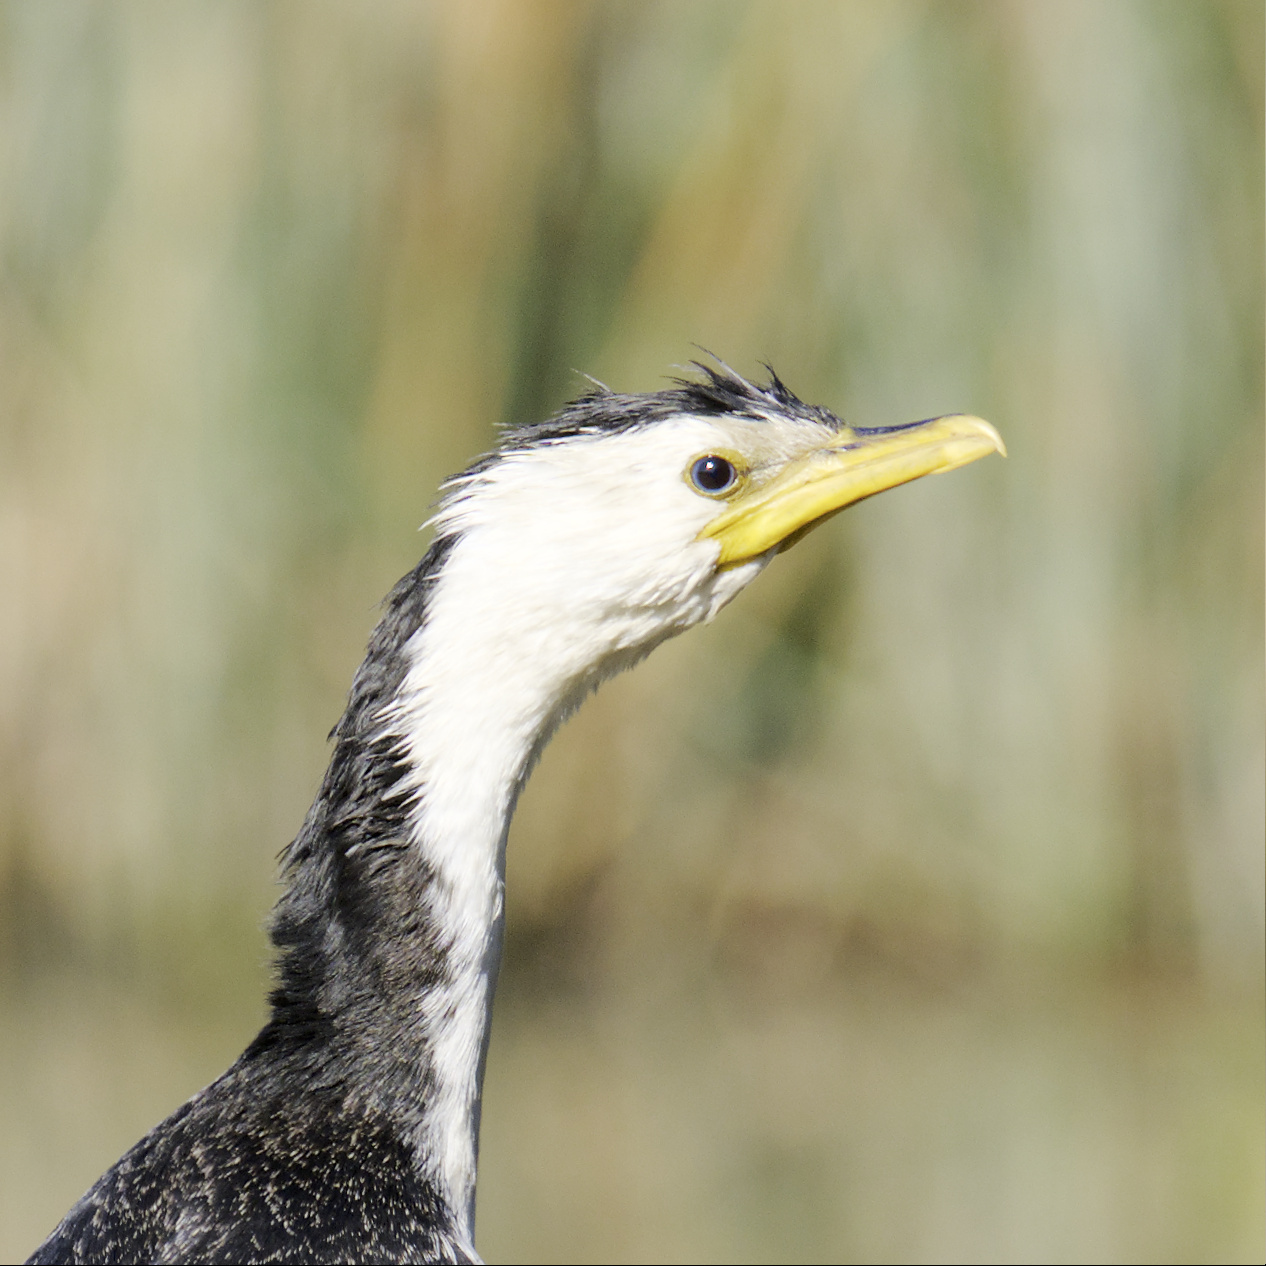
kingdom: Animalia
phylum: Chordata
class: Aves
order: Suliformes
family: Phalacrocoracidae
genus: Microcarbo
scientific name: Microcarbo melanoleucos
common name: Little pied cormorant
